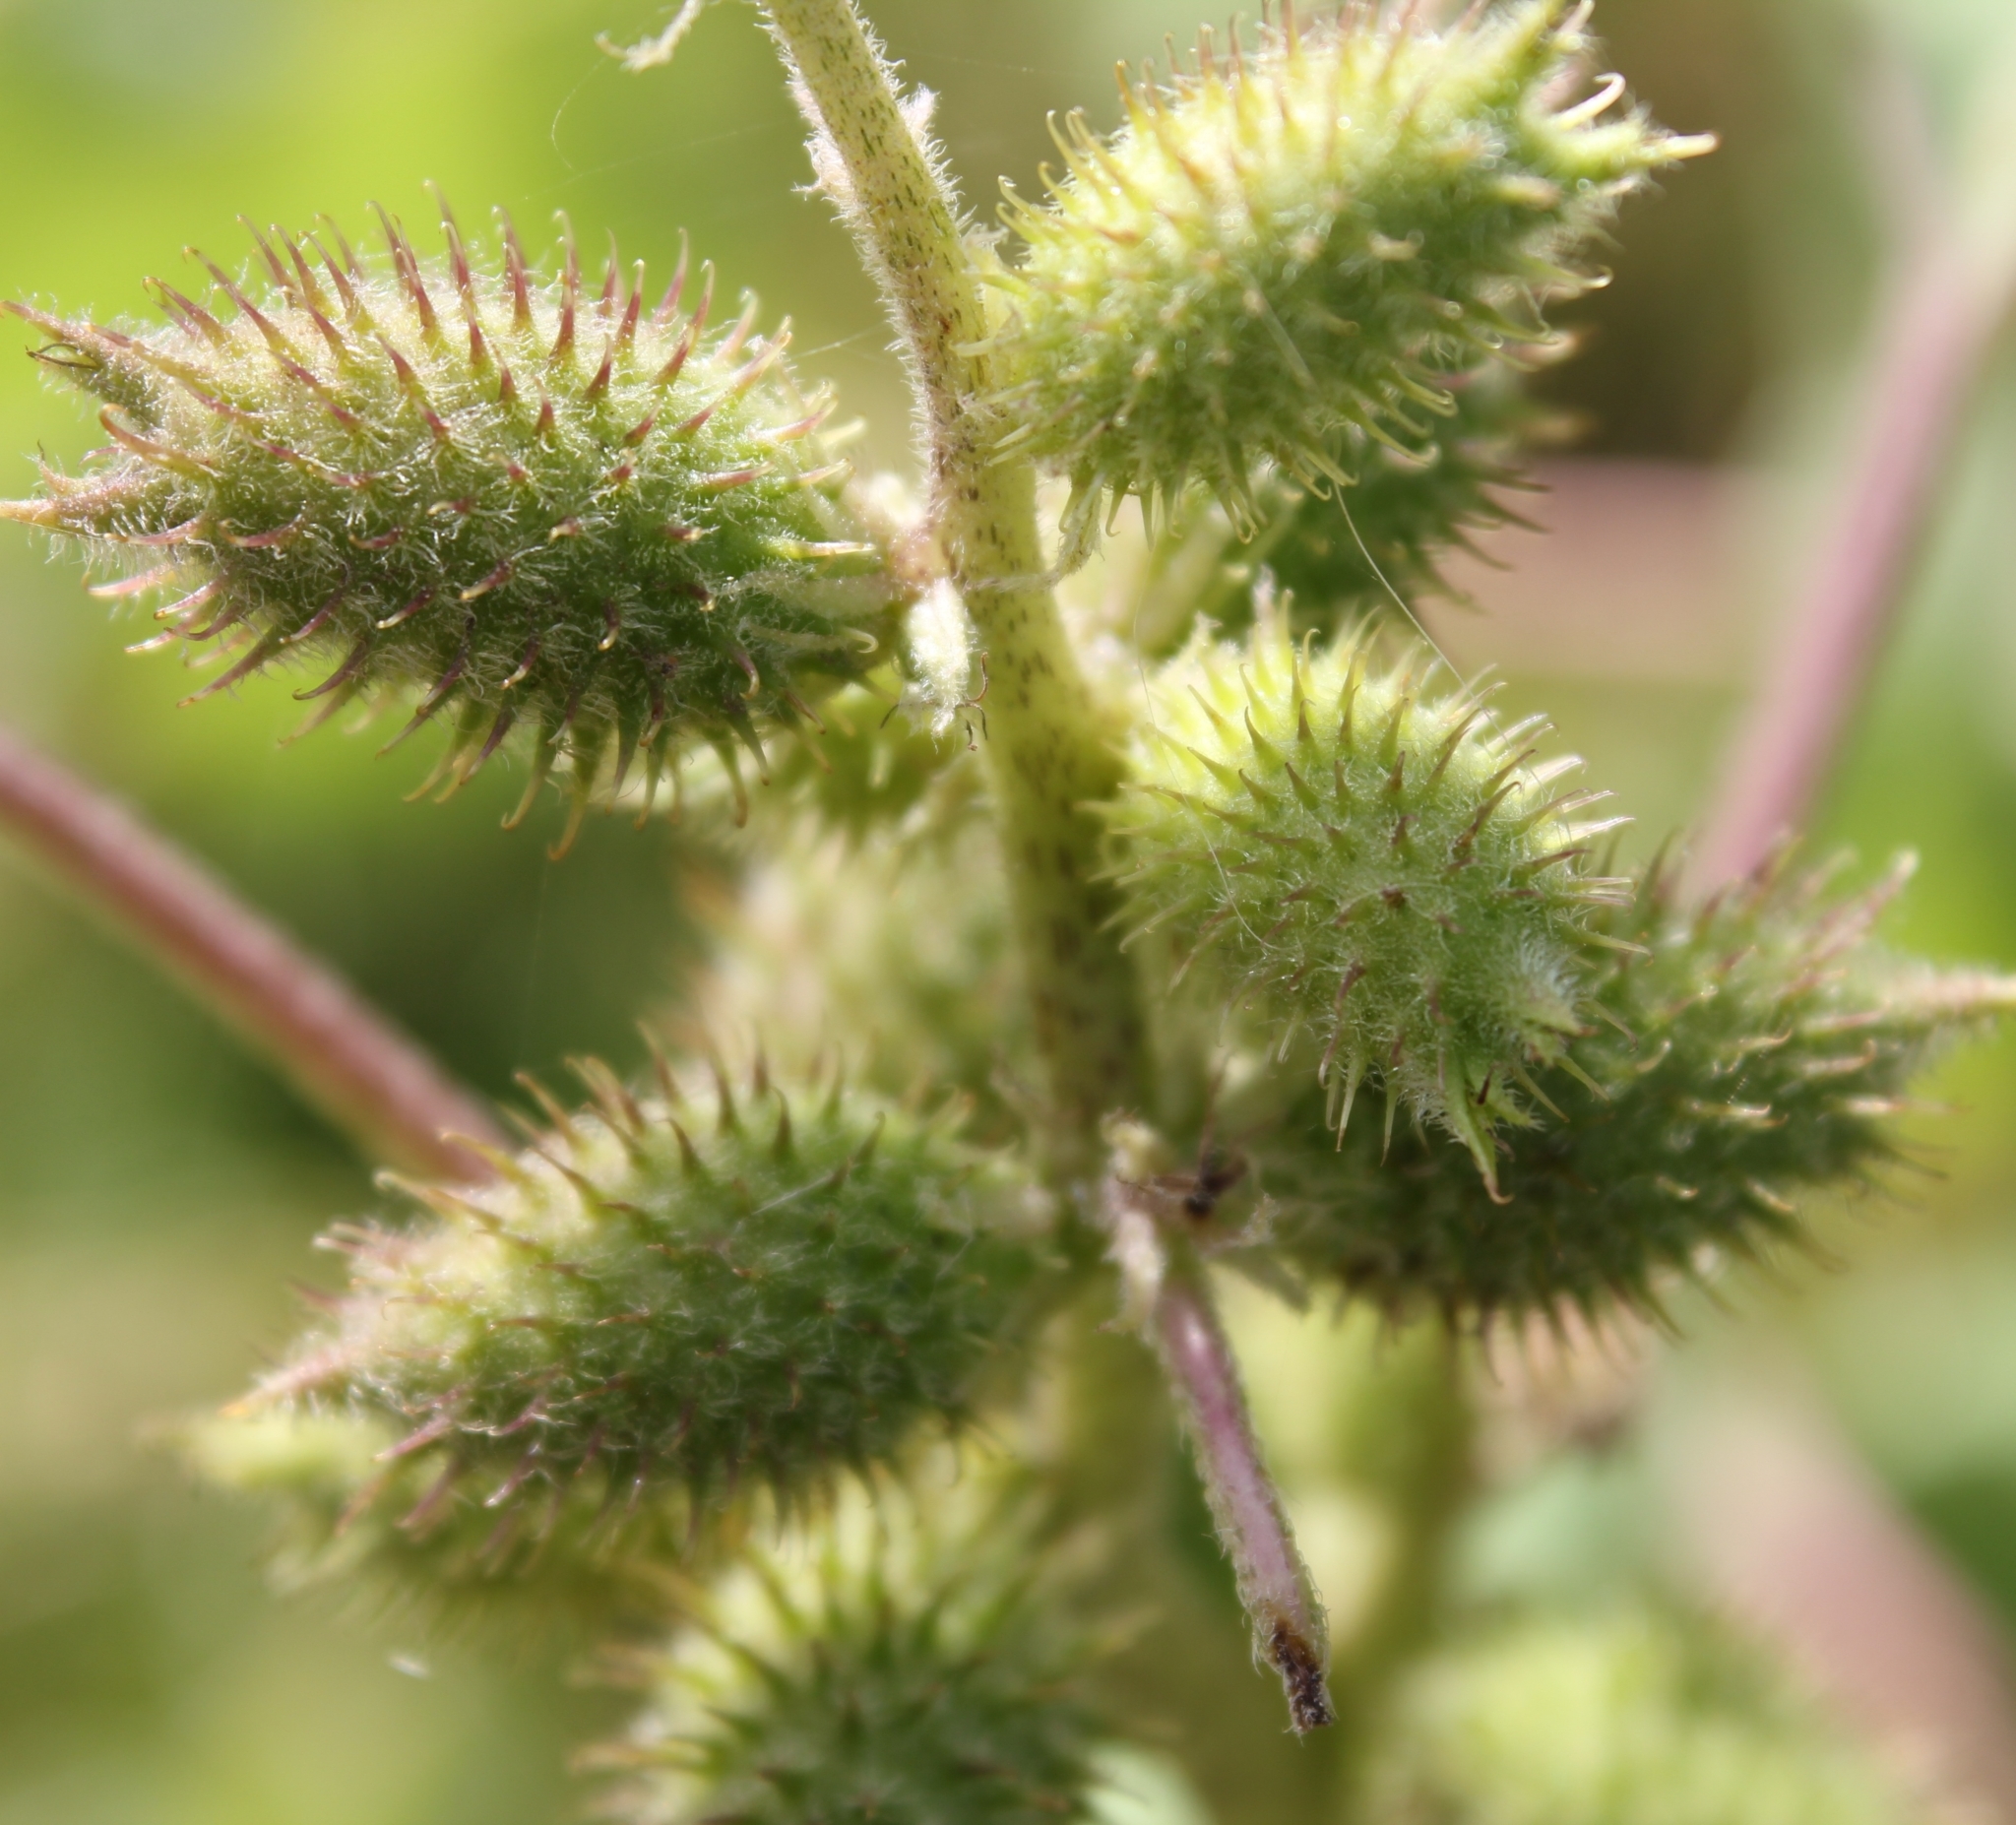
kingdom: Plantae
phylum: Tracheophyta
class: Magnoliopsida
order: Asterales
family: Asteraceae
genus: Xanthium
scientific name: Xanthium orientale
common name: Californian burr
